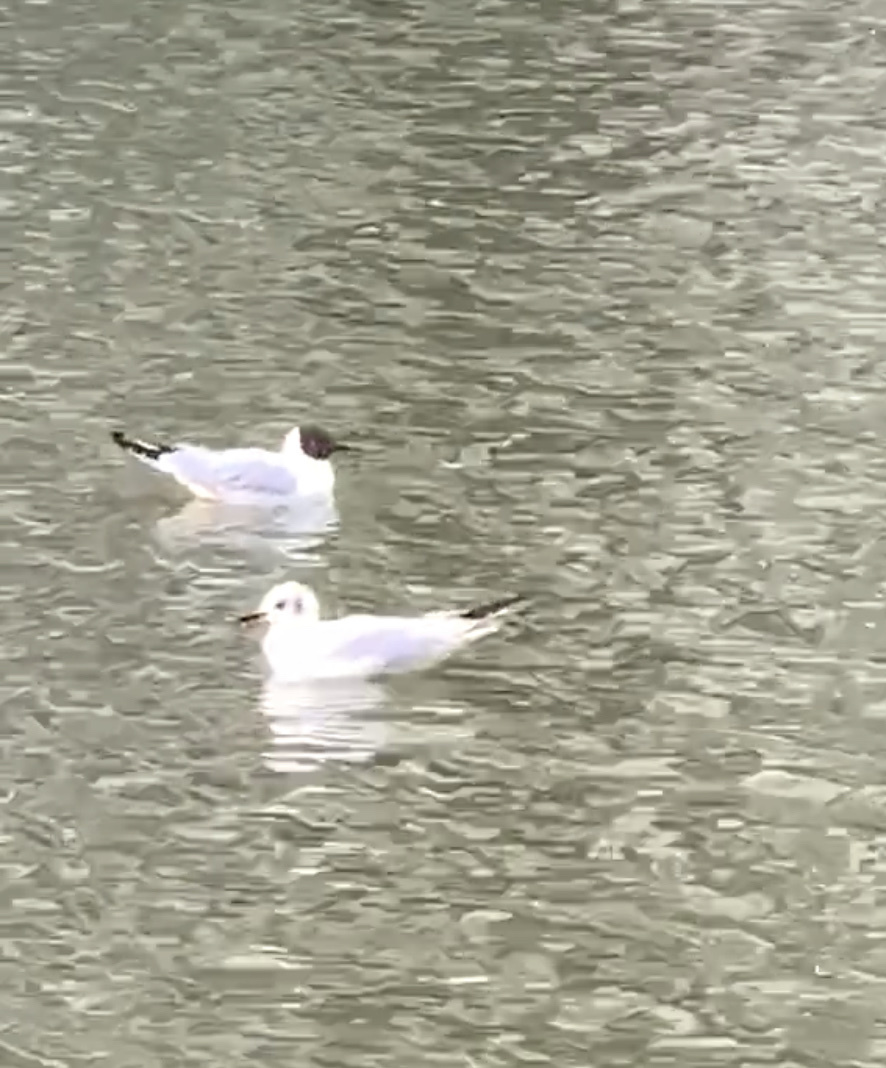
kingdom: Animalia
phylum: Chordata
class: Aves
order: Charadriiformes
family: Laridae
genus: Chroicocephalus
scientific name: Chroicocephalus ridibundus
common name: Black-headed gull
